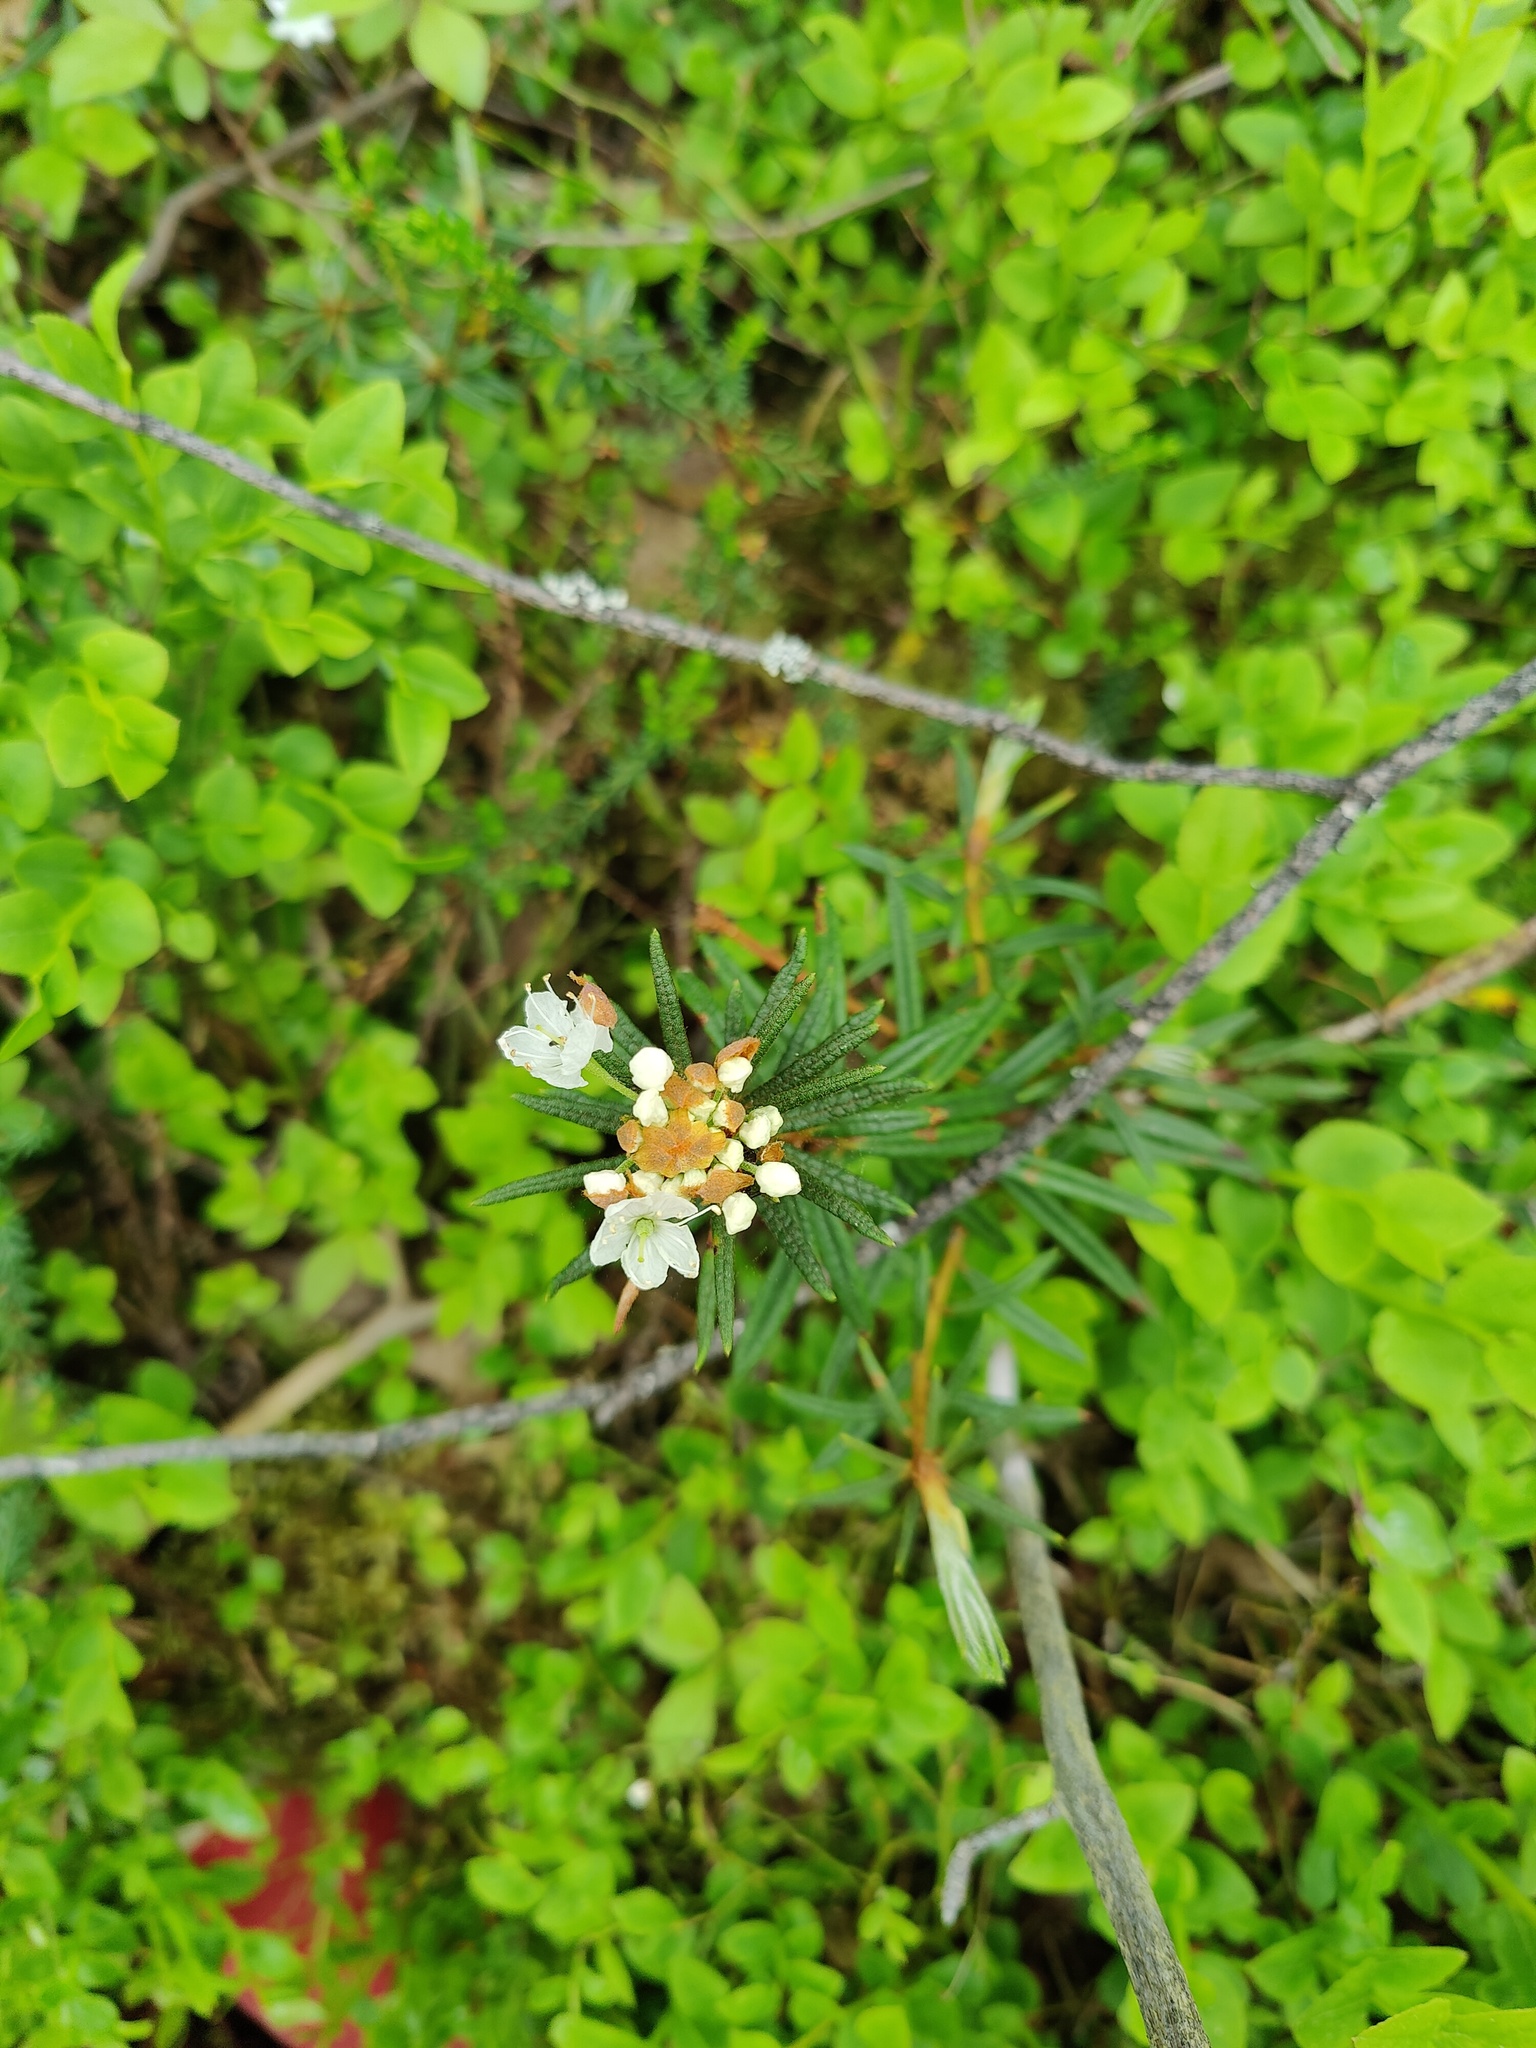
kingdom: Plantae
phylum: Tracheophyta
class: Magnoliopsida
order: Ericales
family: Ericaceae
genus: Rhododendron
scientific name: Rhododendron tomentosum
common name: Marsh labrador tea
